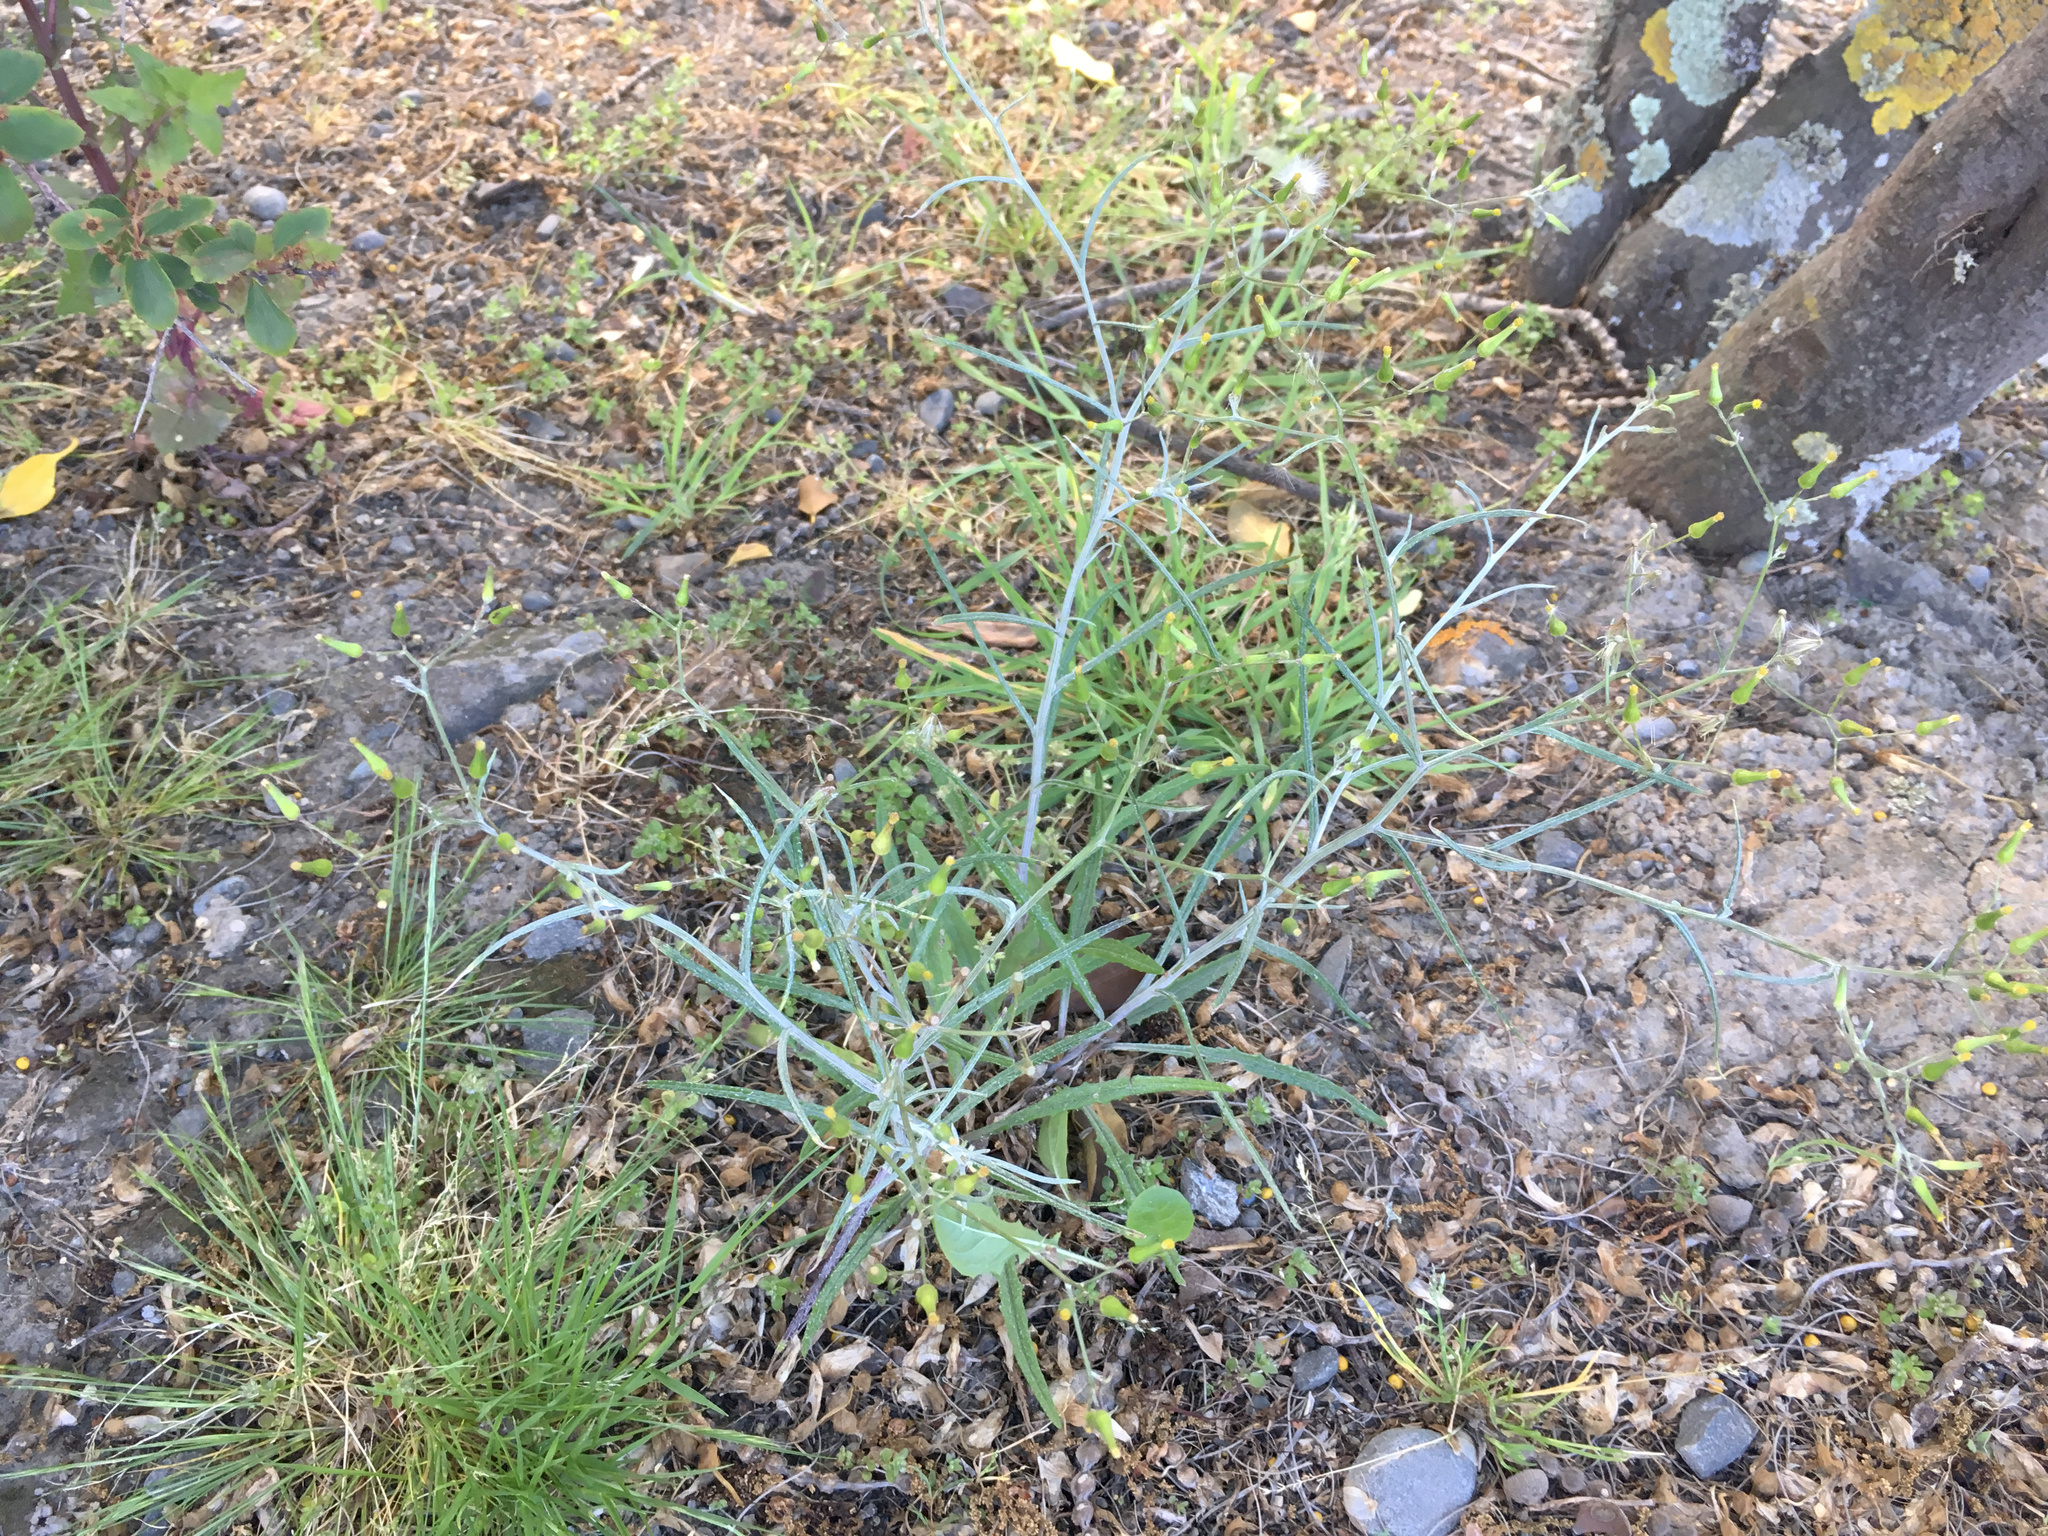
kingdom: Plantae
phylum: Tracheophyta
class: Magnoliopsida
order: Asterales
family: Asteraceae
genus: Senecio
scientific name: Senecio quadridentatus
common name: Cotton fireweed
